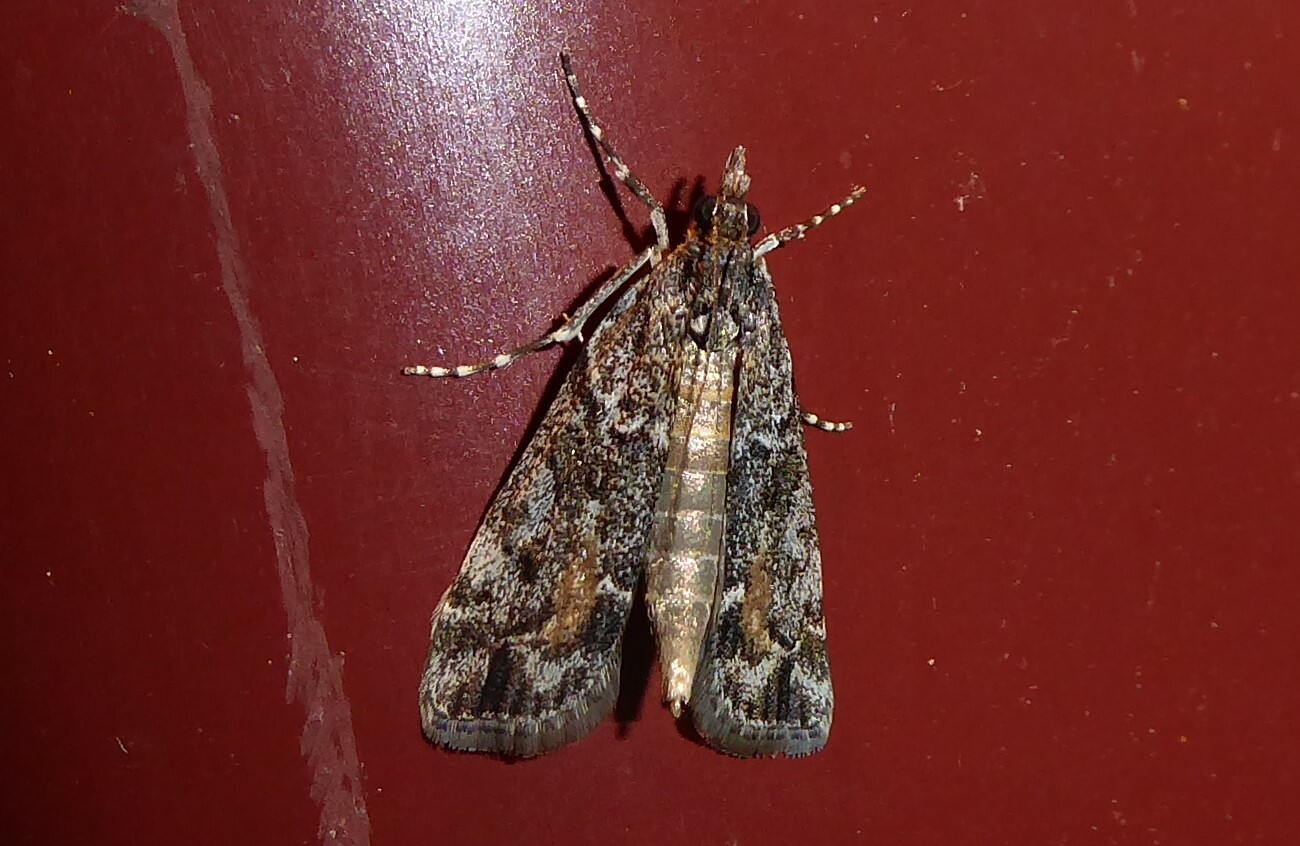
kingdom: Animalia
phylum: Arthropoda
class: Insecta
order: Lepidoptera
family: Crambidae
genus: Eudonia
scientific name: Eudonia submarginalis
